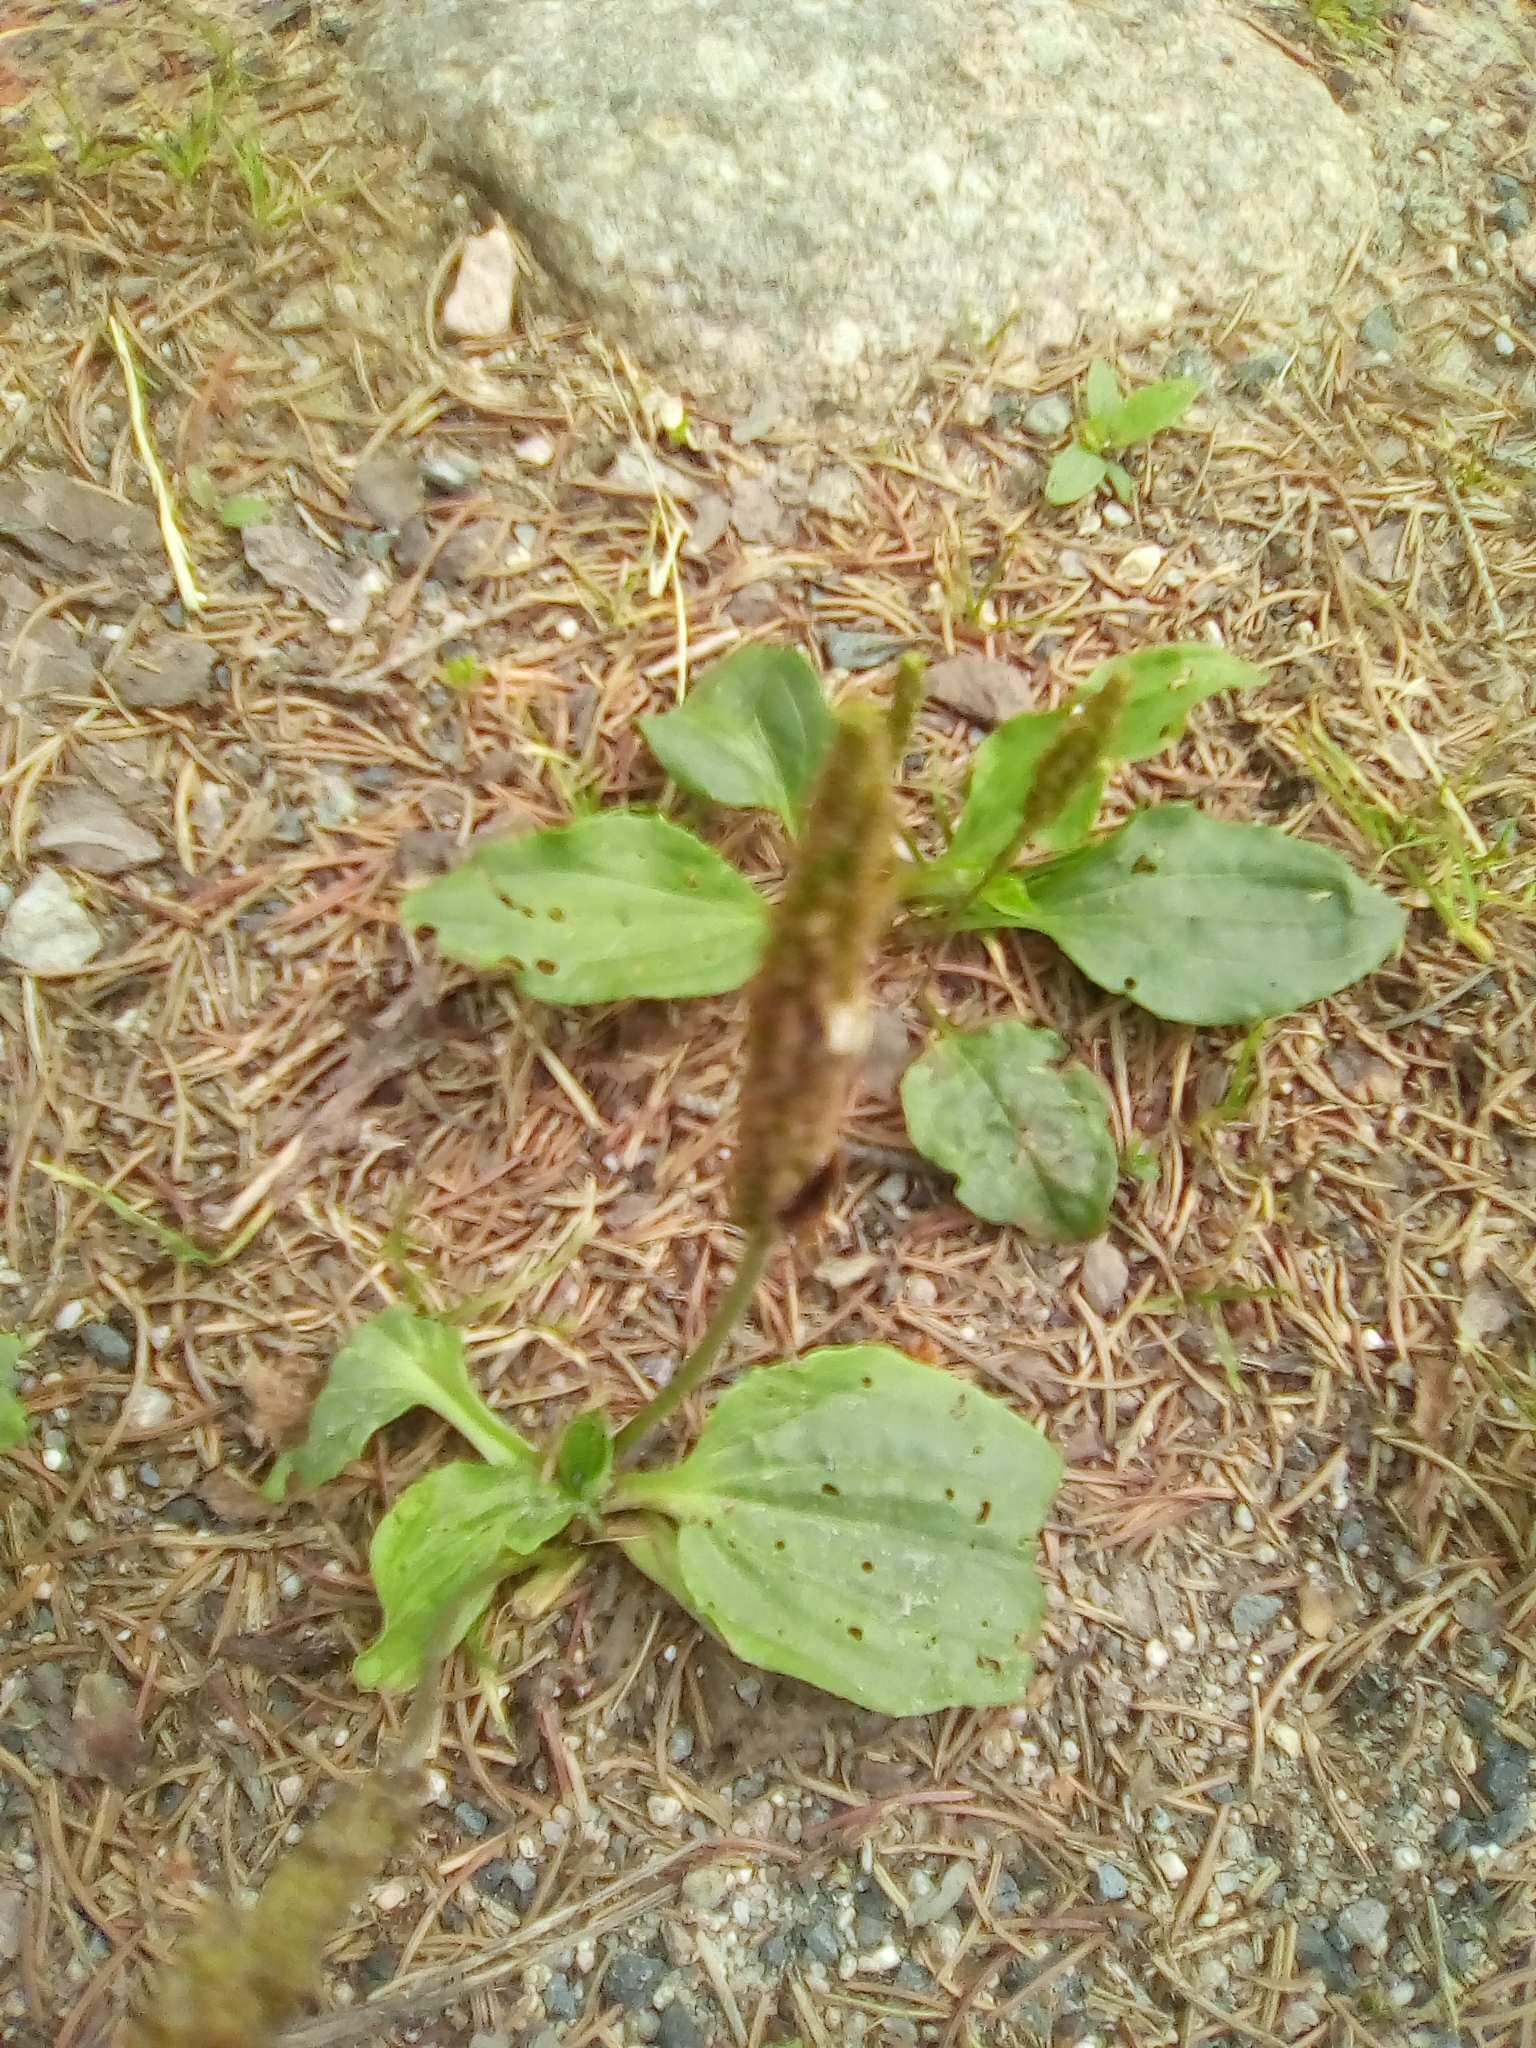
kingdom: Plantae
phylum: Tracheophyta
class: Magnoliopsida
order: Lamiales
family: Plantaginaceae
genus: Plantago
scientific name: Plantago major
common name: Common plantain
